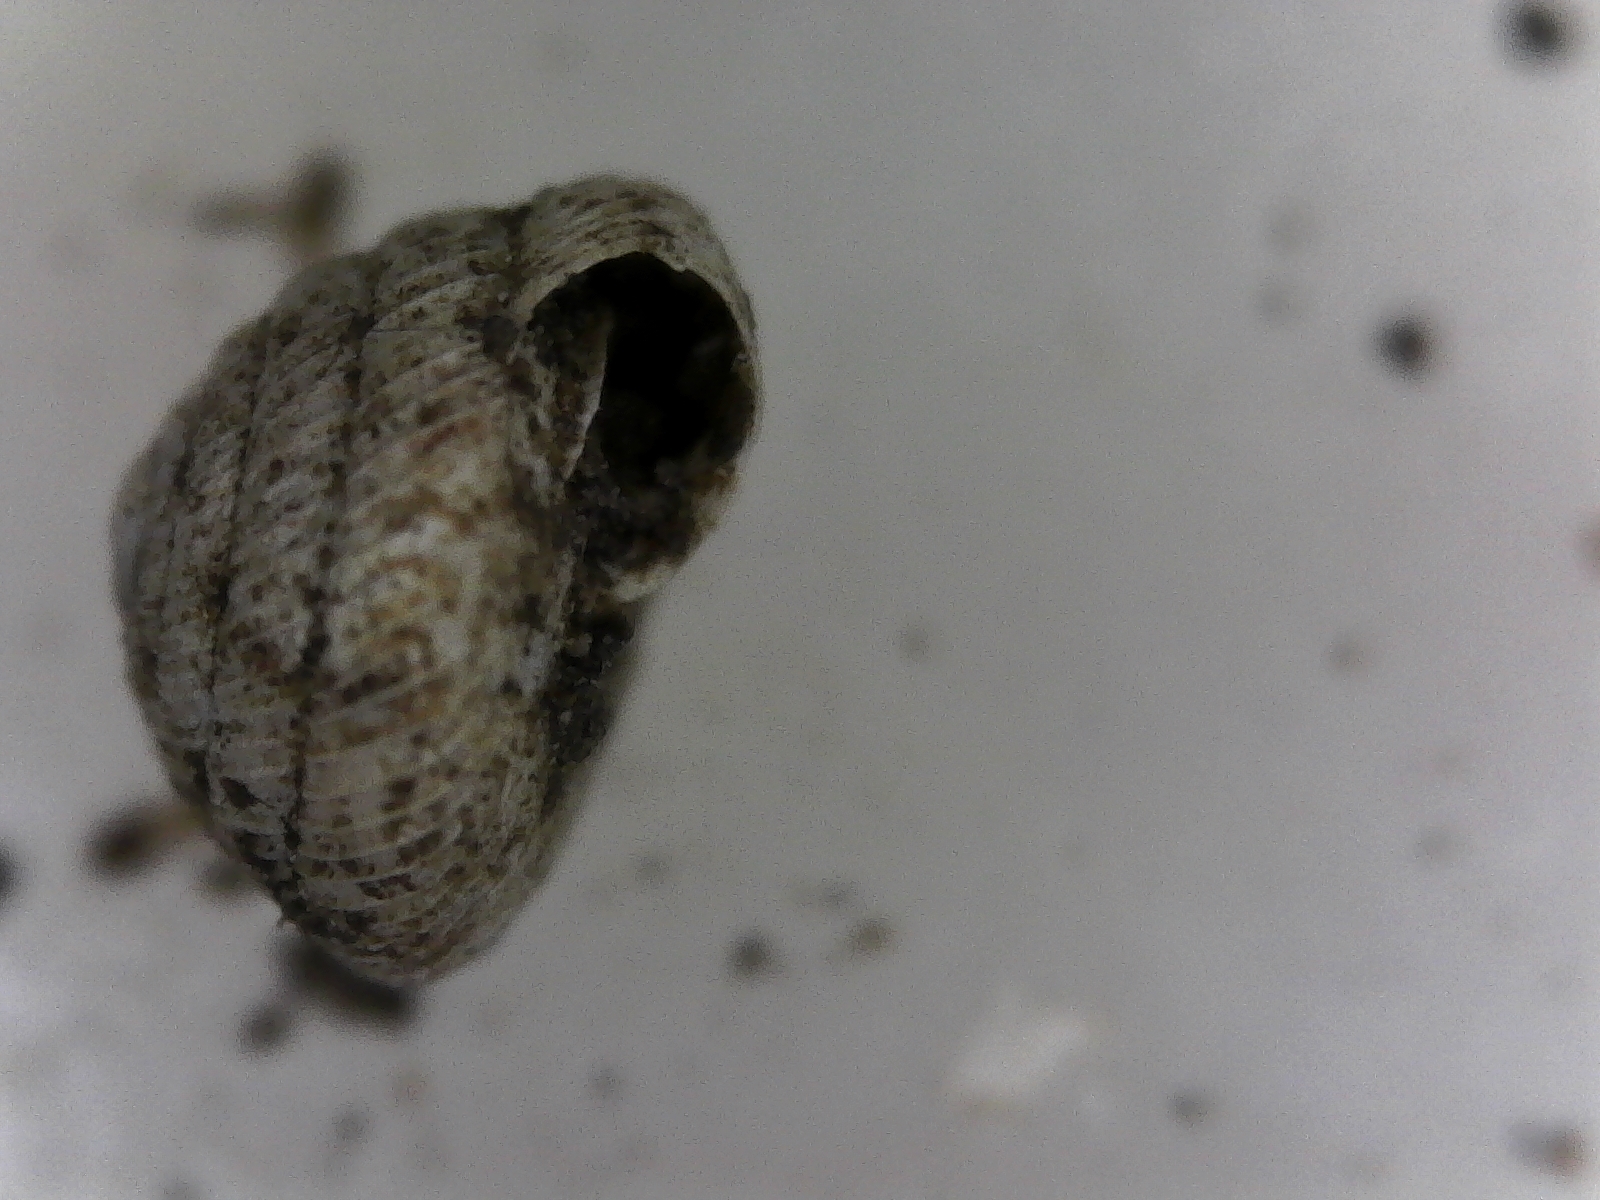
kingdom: Animalia
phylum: Mollusca
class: Gastropoda
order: Stylommatophora
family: Strobilopsidae
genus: Strobilops
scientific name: Strobilops labyrinthicus
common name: Maze pinecone
